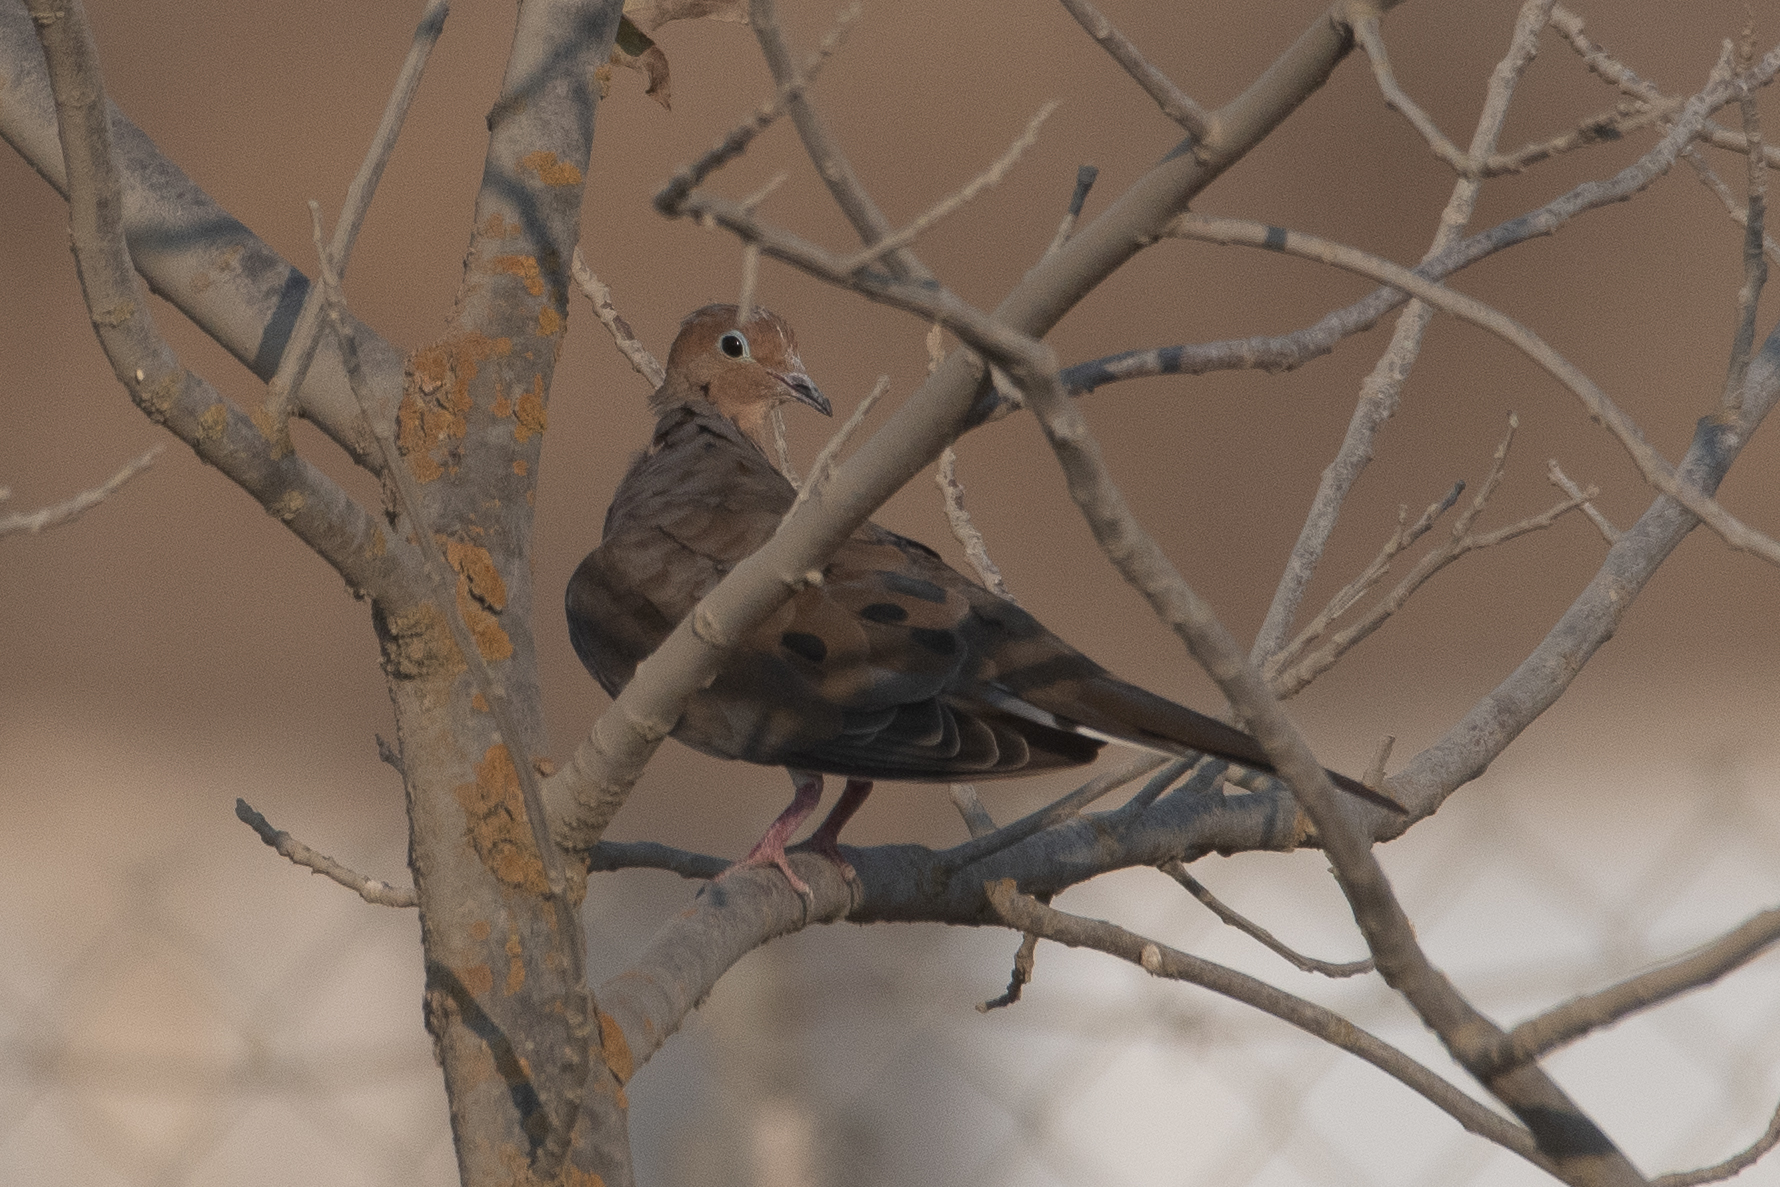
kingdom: Animalia
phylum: Chordata
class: Aves
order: Columbiformes
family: Columbidae
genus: Zenaida
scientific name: Zenaida macroura
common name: Mourning dove
